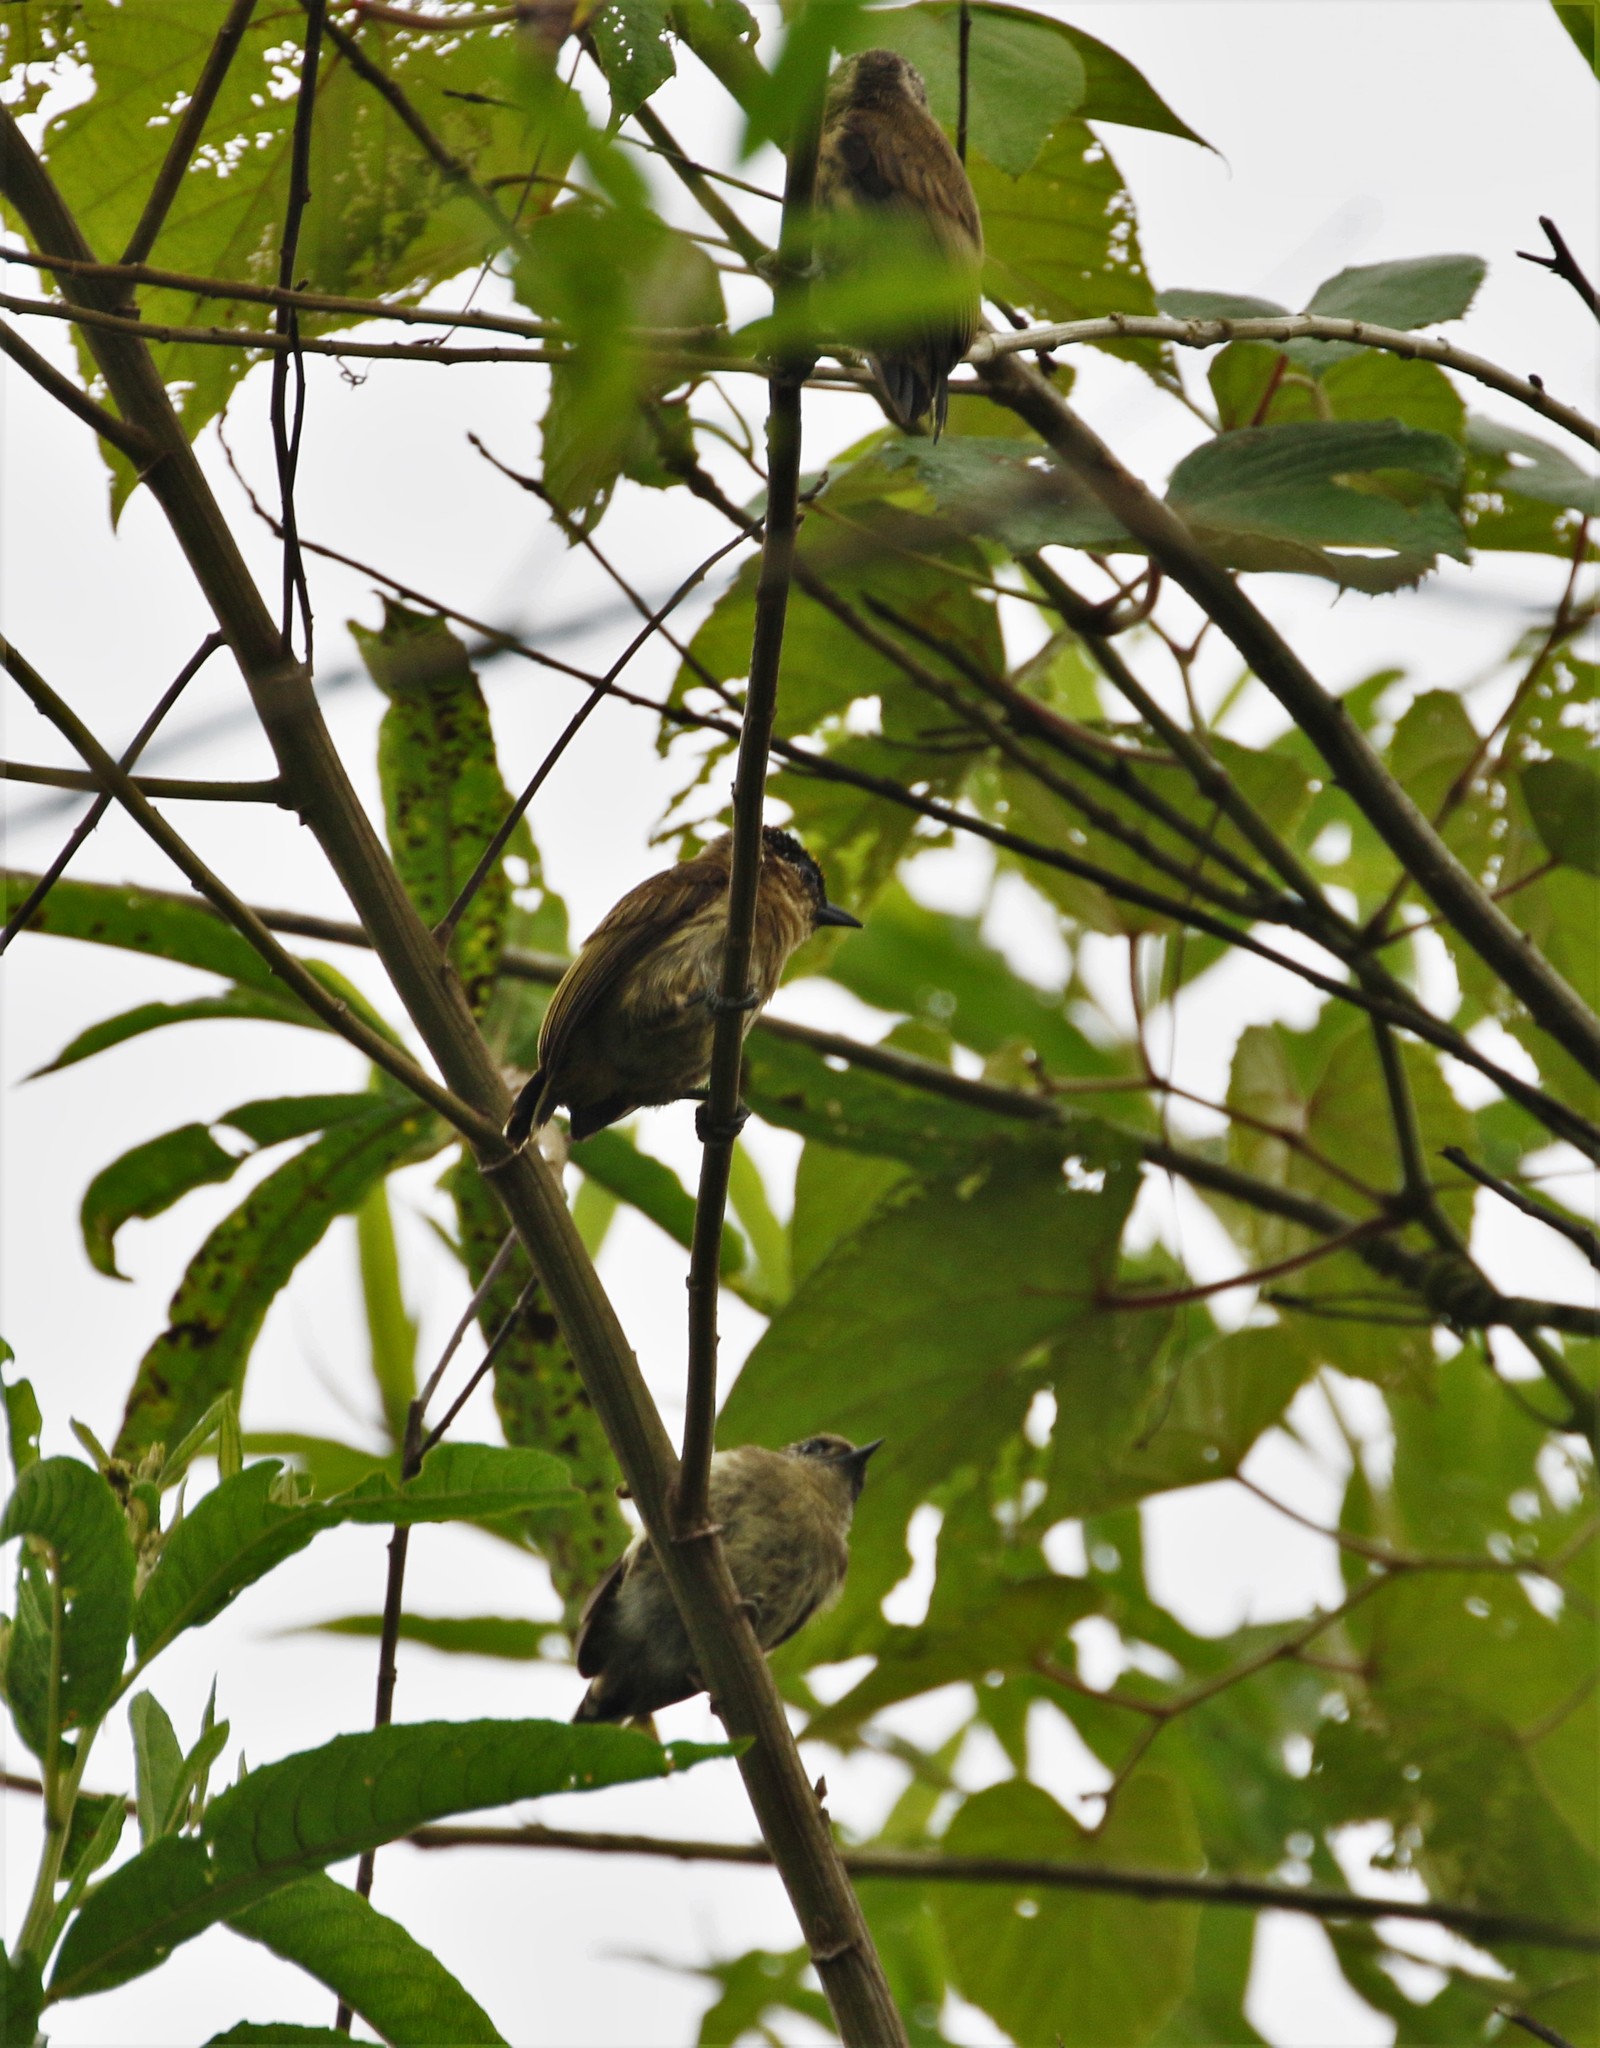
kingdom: Animalia
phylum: Chordata
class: Aves
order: Piciformes
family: Picidae
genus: Picumnus
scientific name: Picumnus olivaceus
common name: Olivaceous piculet
